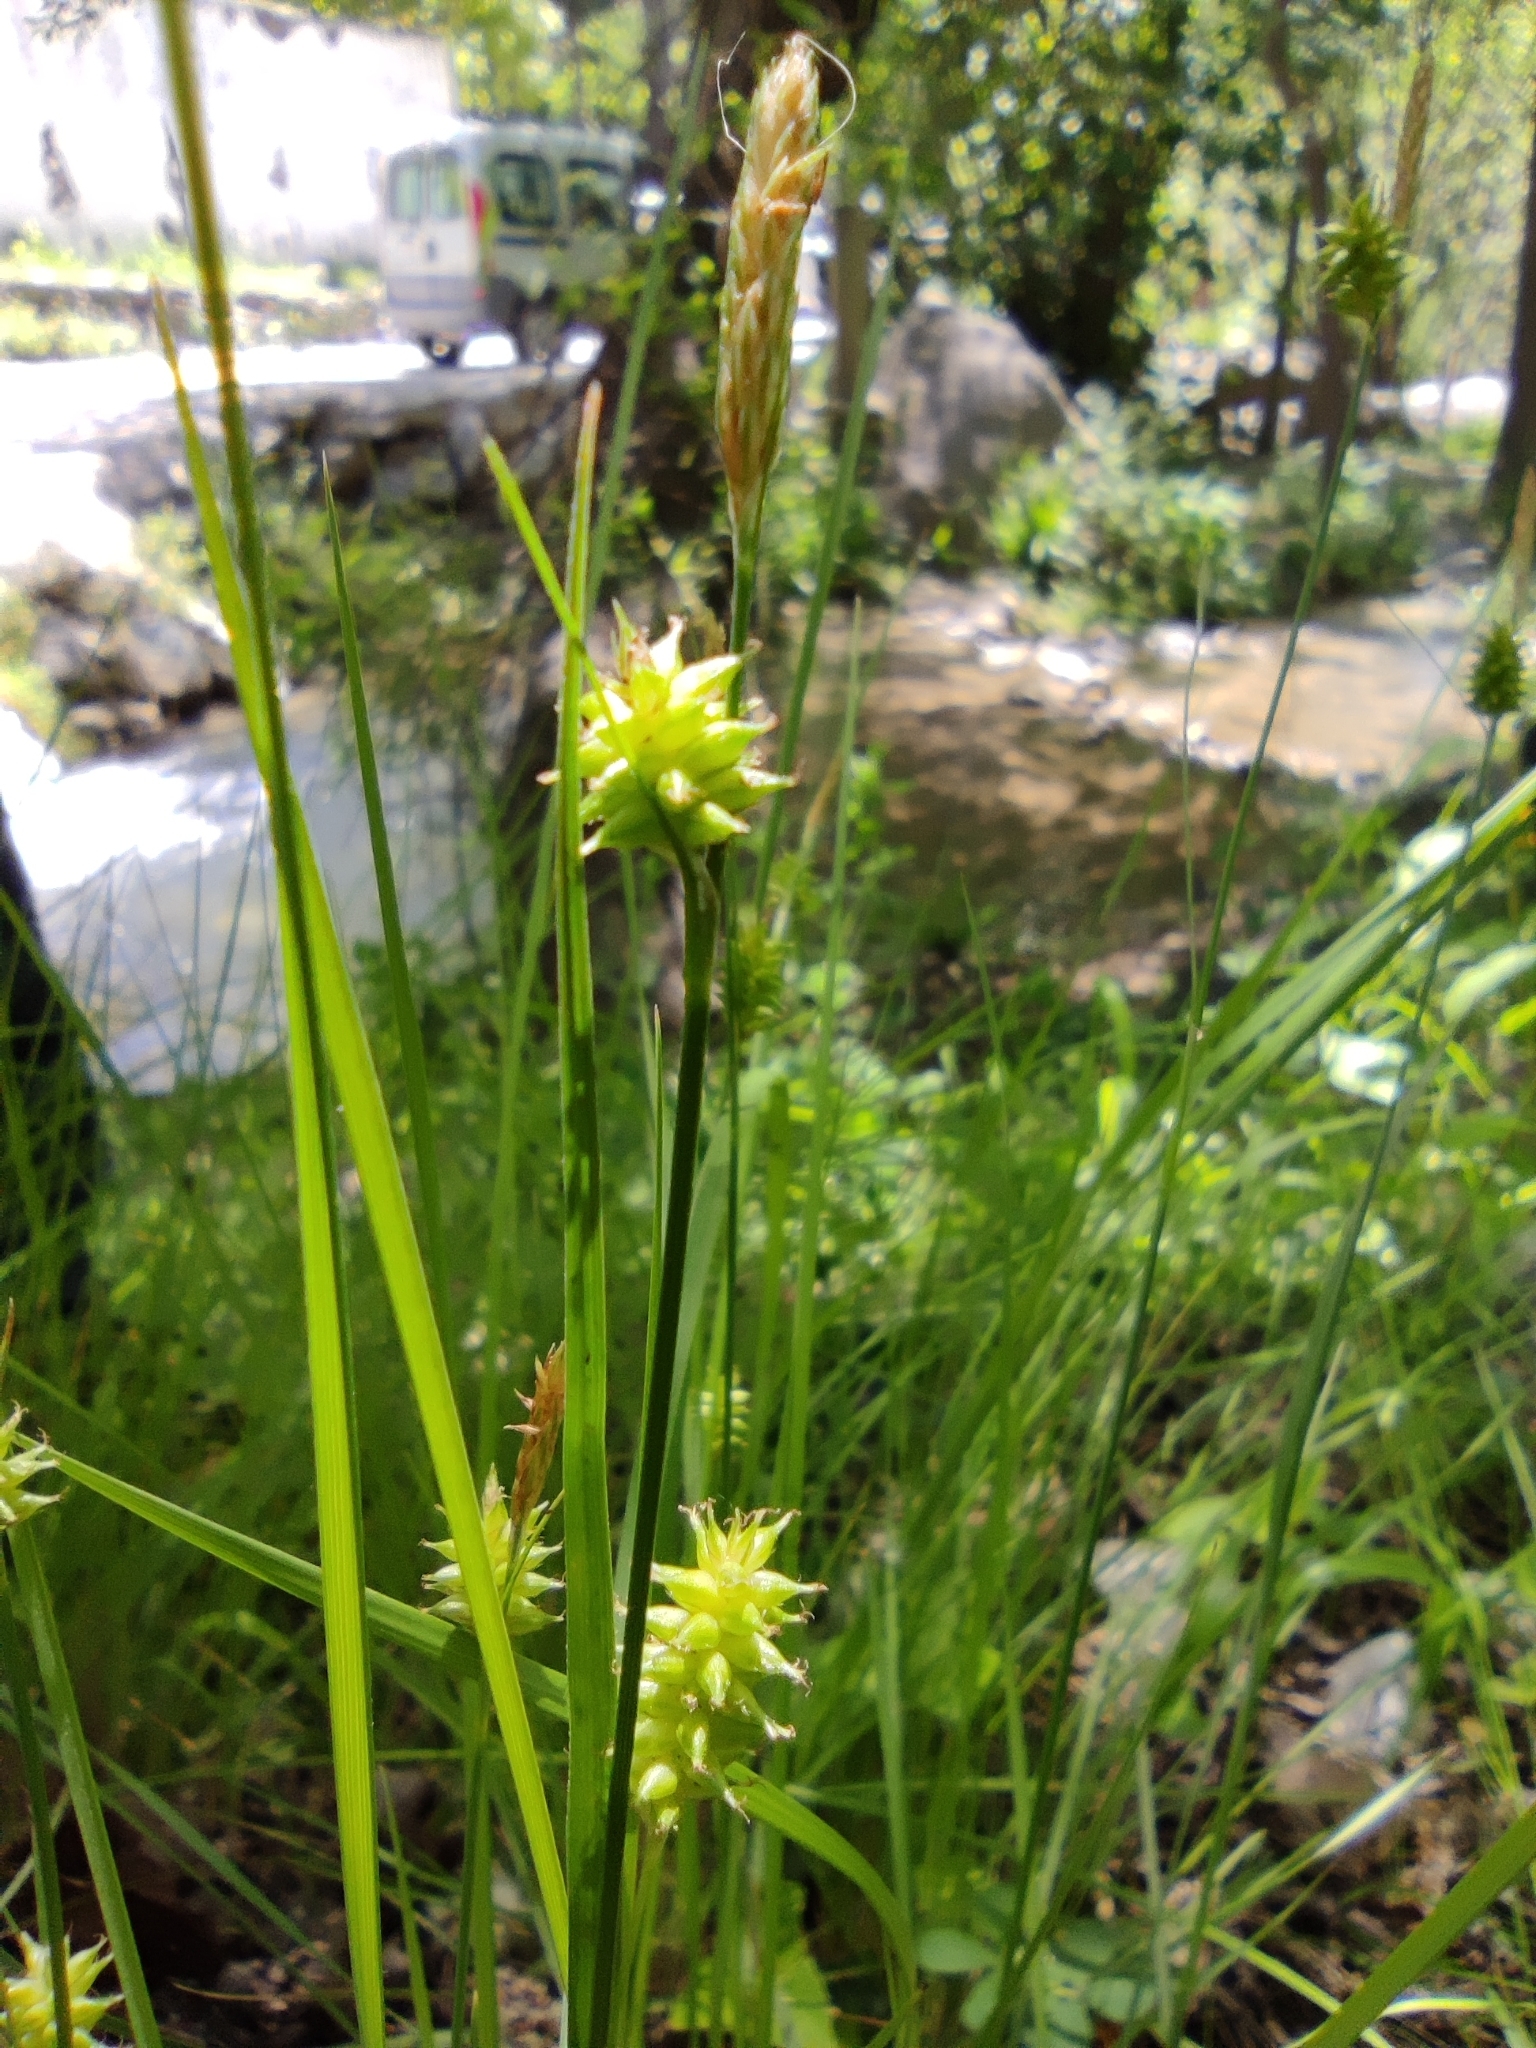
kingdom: Plantae
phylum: Tracheophyta
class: Liliopsida
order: Poales
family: Cyperaceae
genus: Carex
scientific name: Carex mairei
